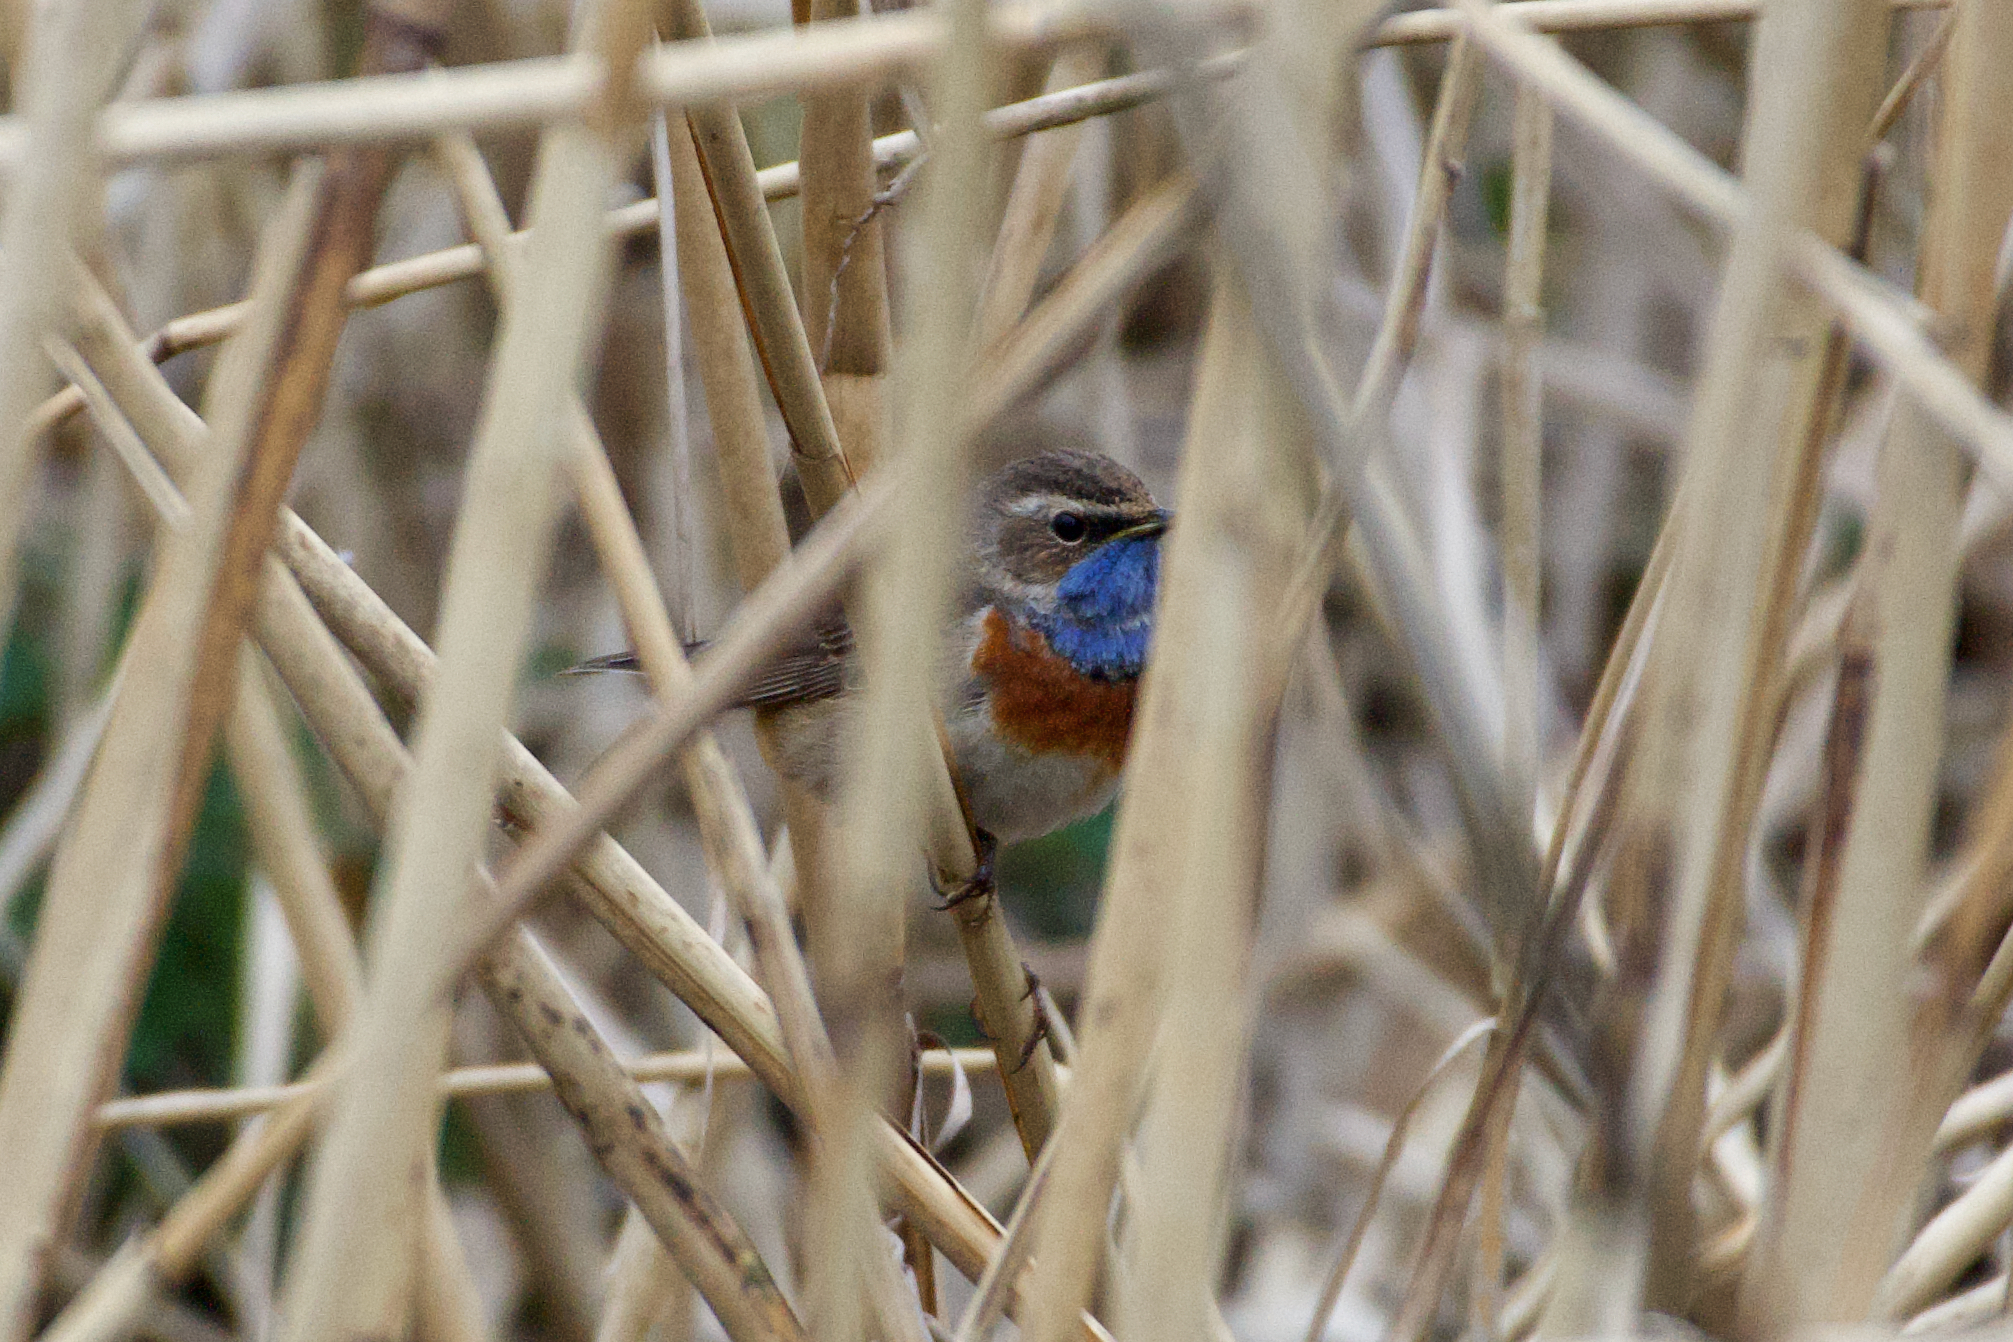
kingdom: Animalia
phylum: Chordata
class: Aves
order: Passeriformes
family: Muscicapidae
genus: Luscinia
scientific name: Luscinia svecica
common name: Bluethroat
